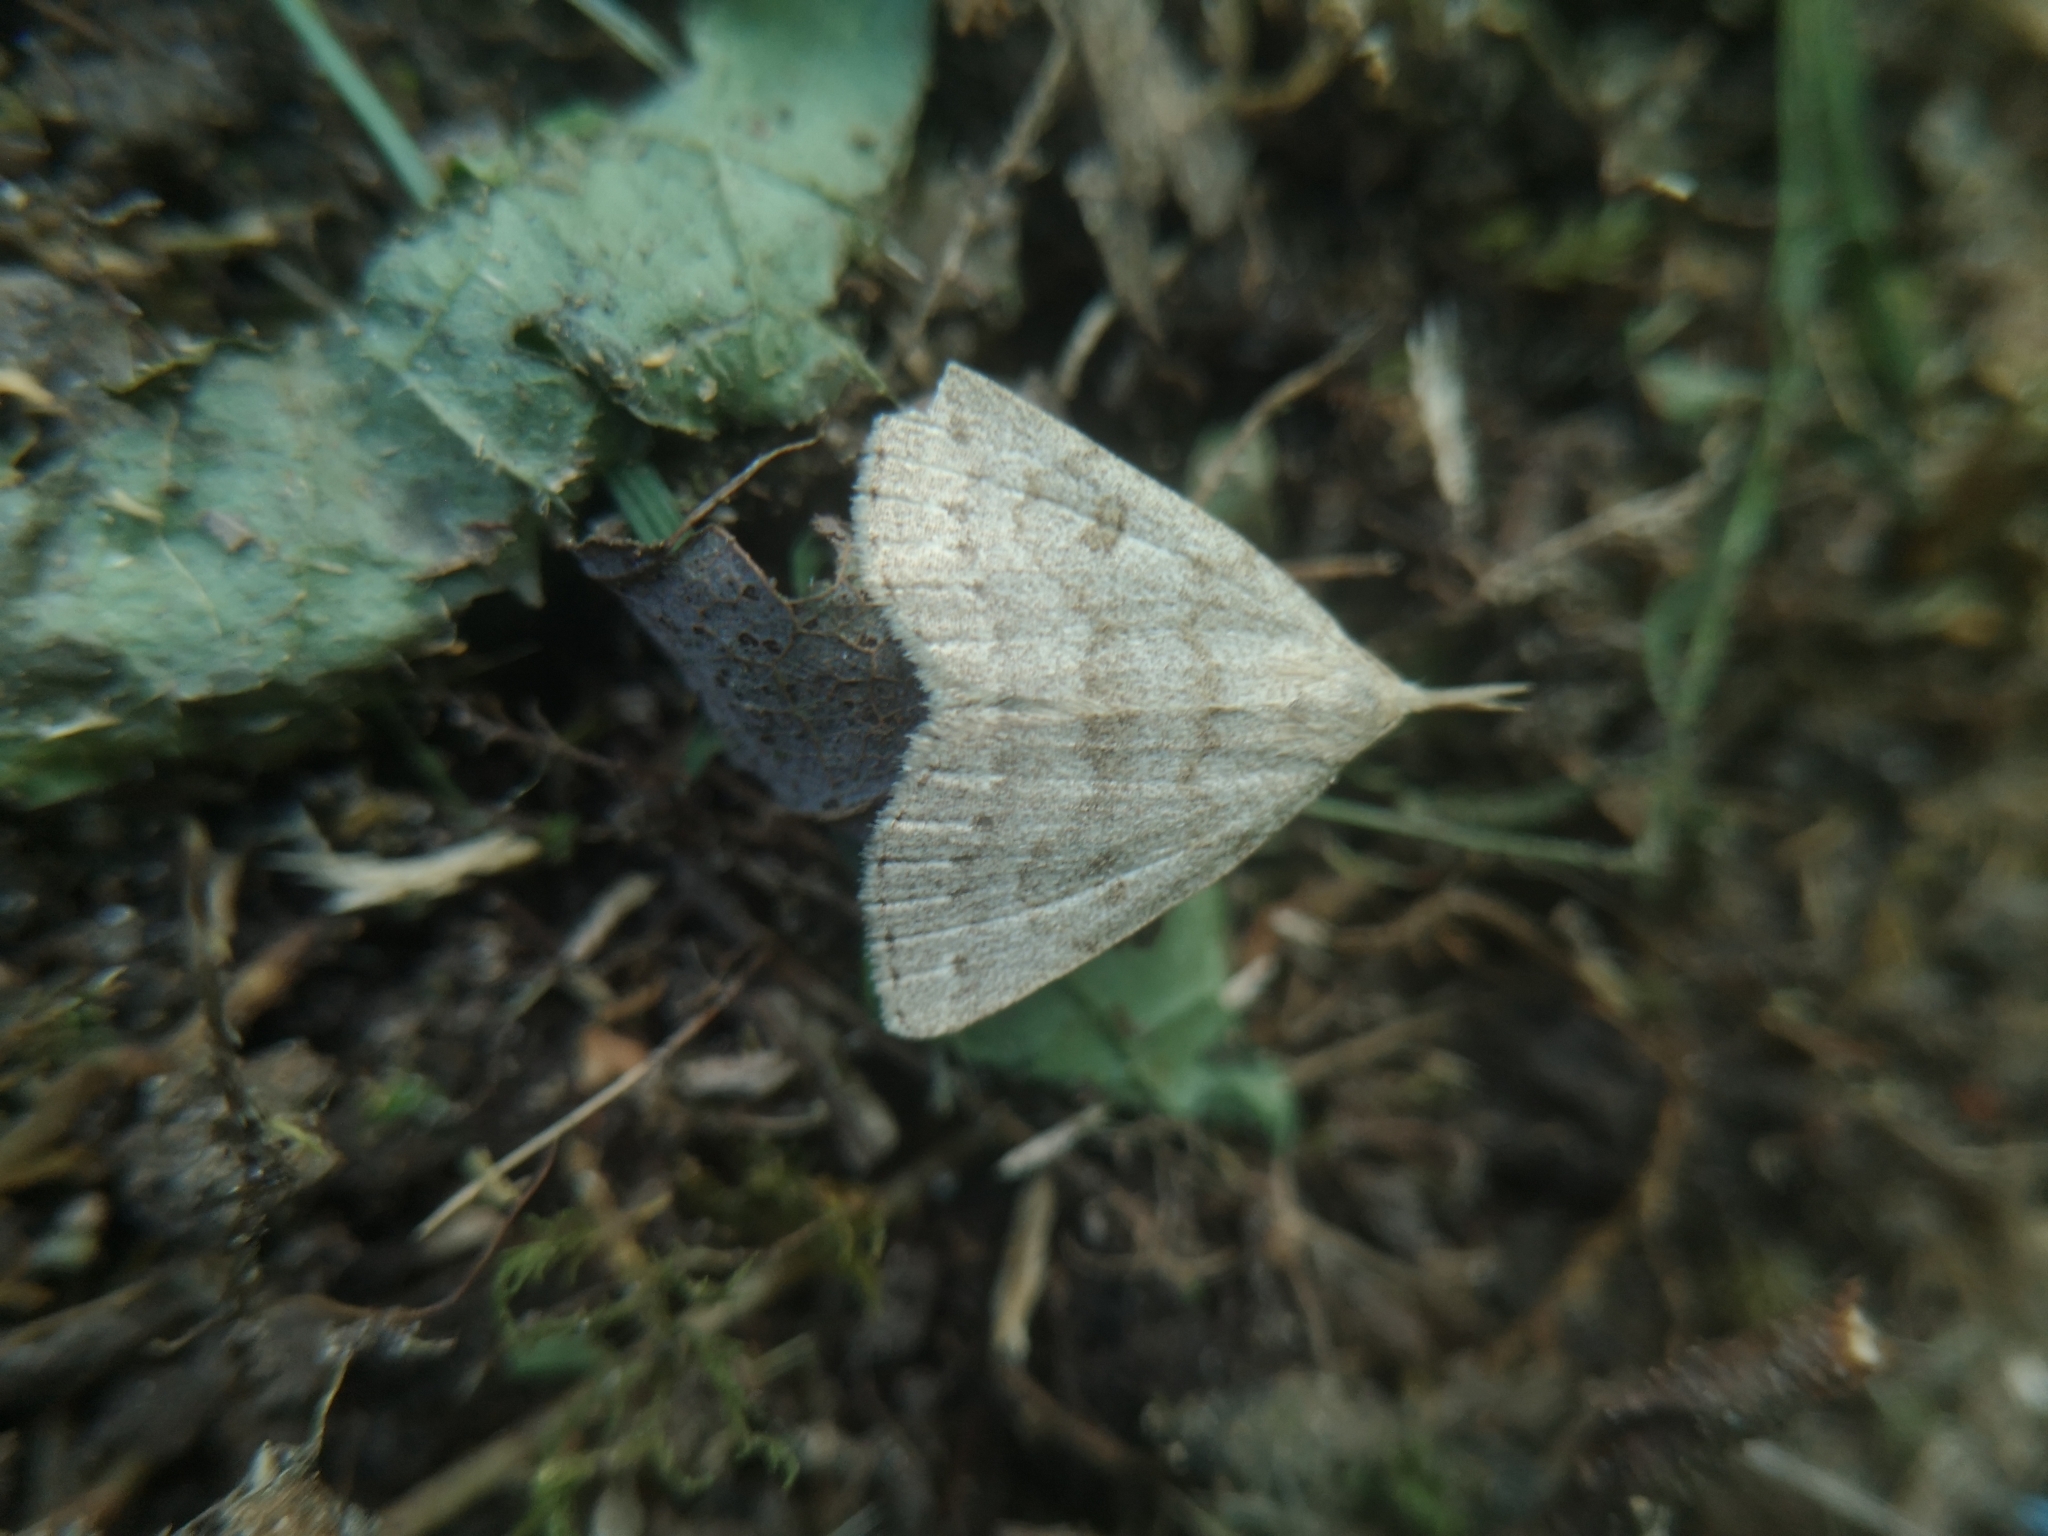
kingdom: Animalia
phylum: Arthropoda
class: Insecta
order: Lepidoptera
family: Erebidae
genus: Macrochilo
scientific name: Macrochilo morbidalis
